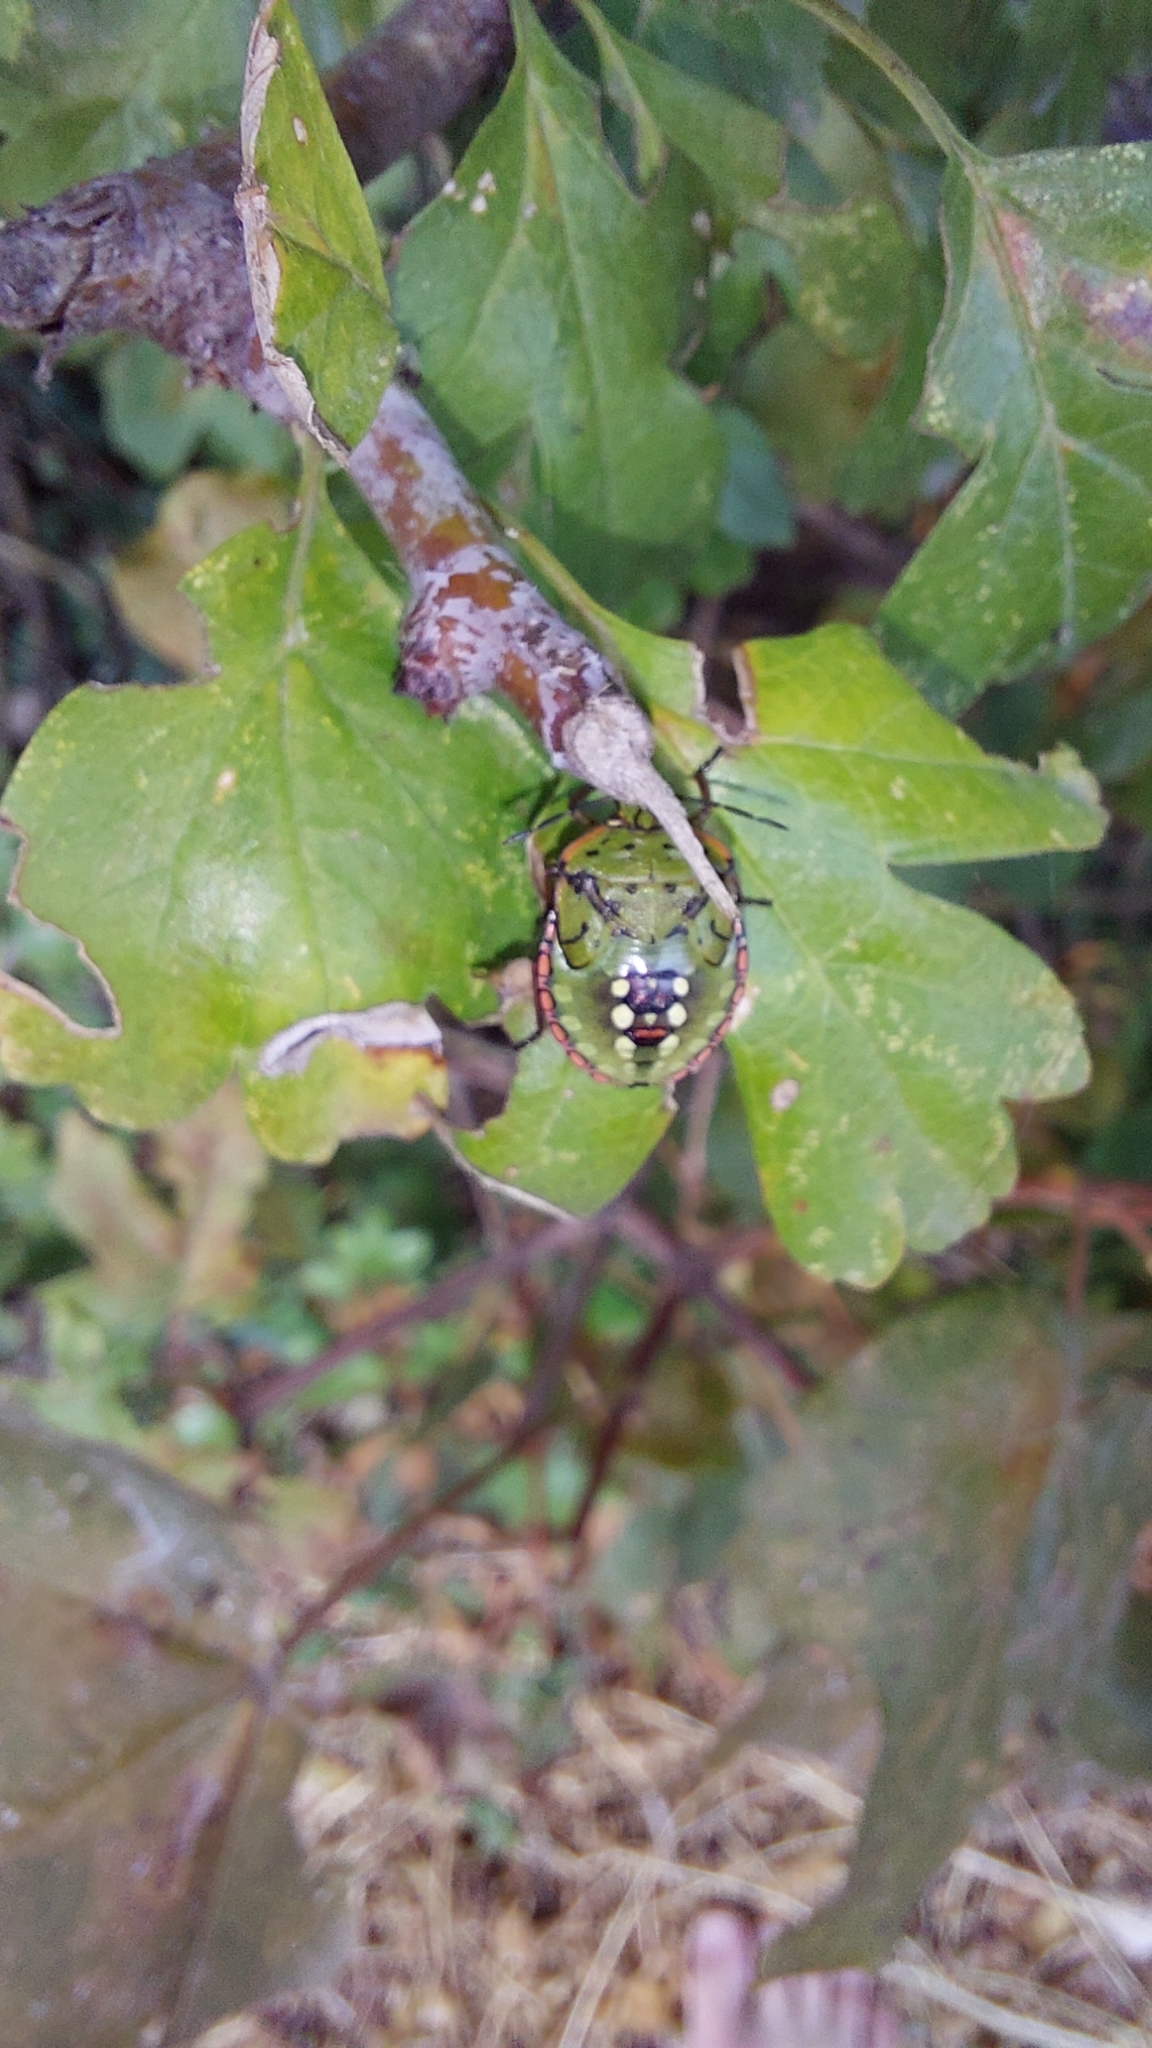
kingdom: Animalia
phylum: Arthropoda
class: Insecta
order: Hemiptera
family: Pentatomidae
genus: Nezara
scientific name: Nezara viridula
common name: Southern green stink bug
